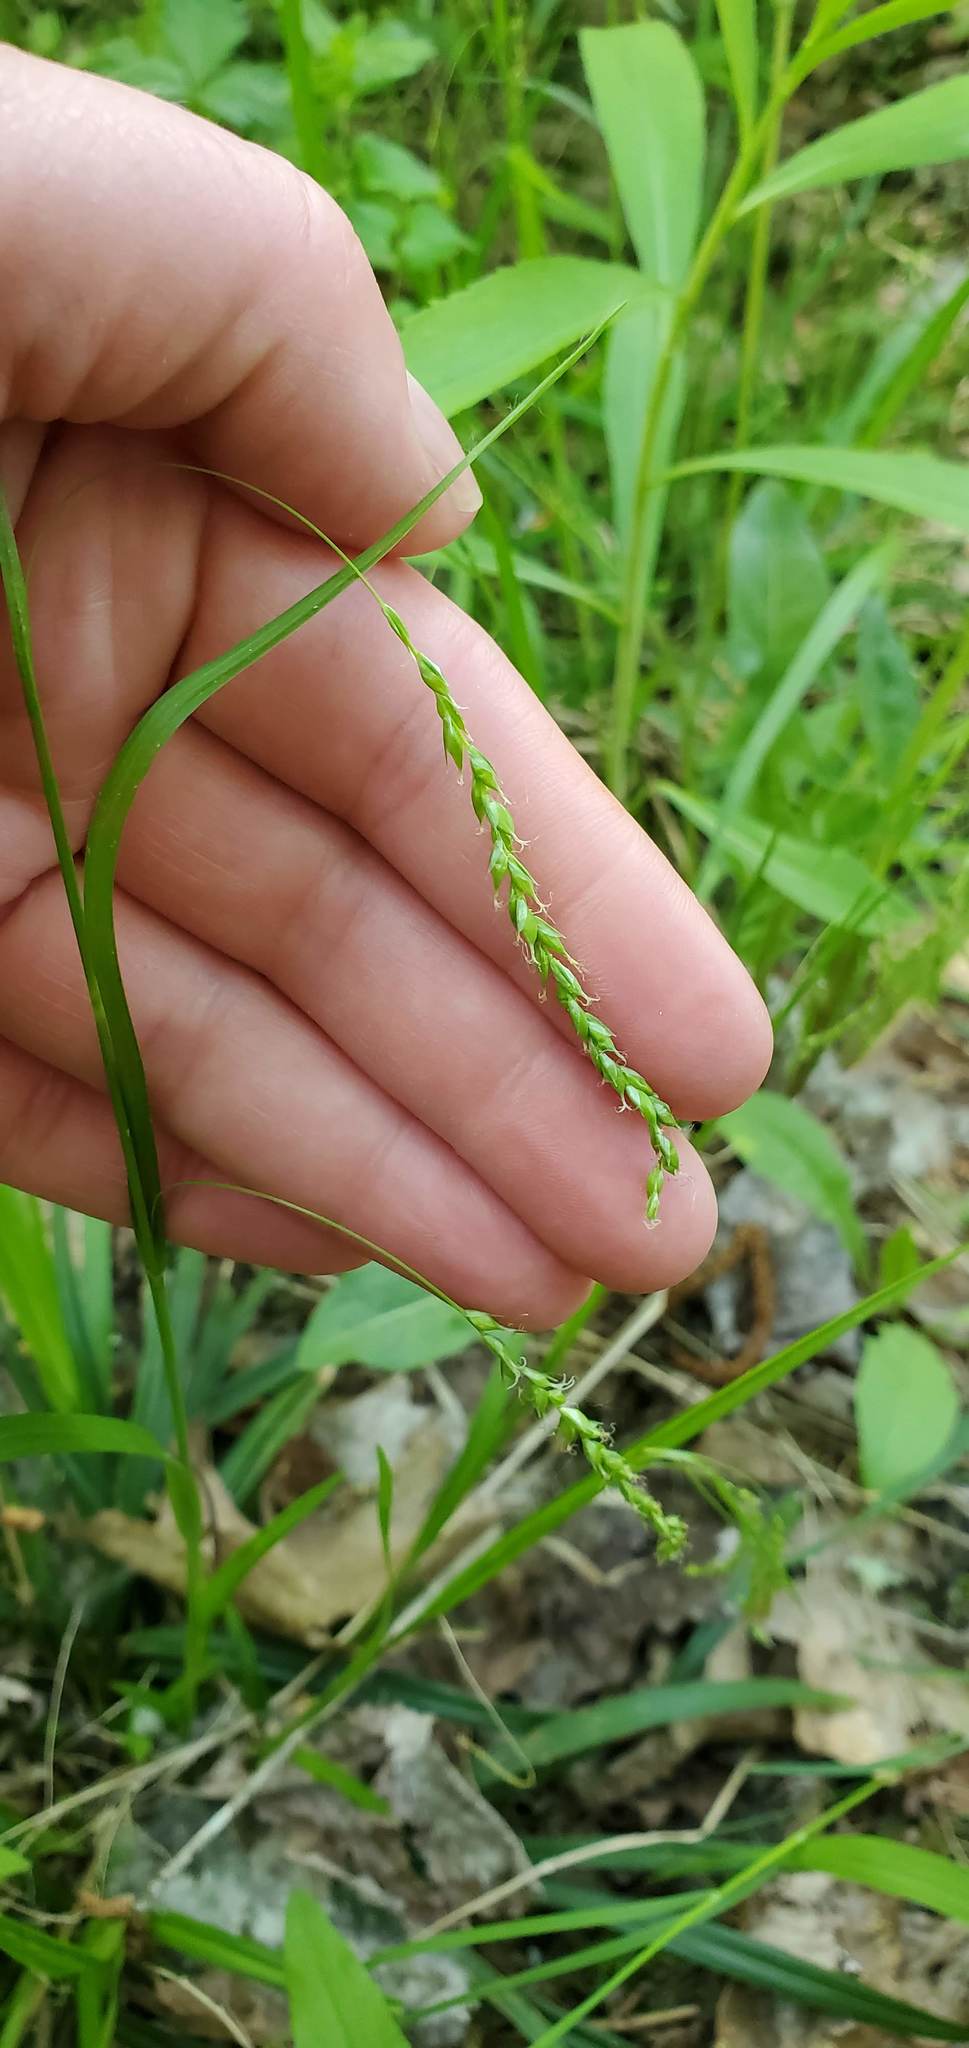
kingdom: Plantae
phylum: Tracheophyta
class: Liliopsida
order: Poales
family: Cyperaceae
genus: Carex
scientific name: Carex arctata
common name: Black sedge
